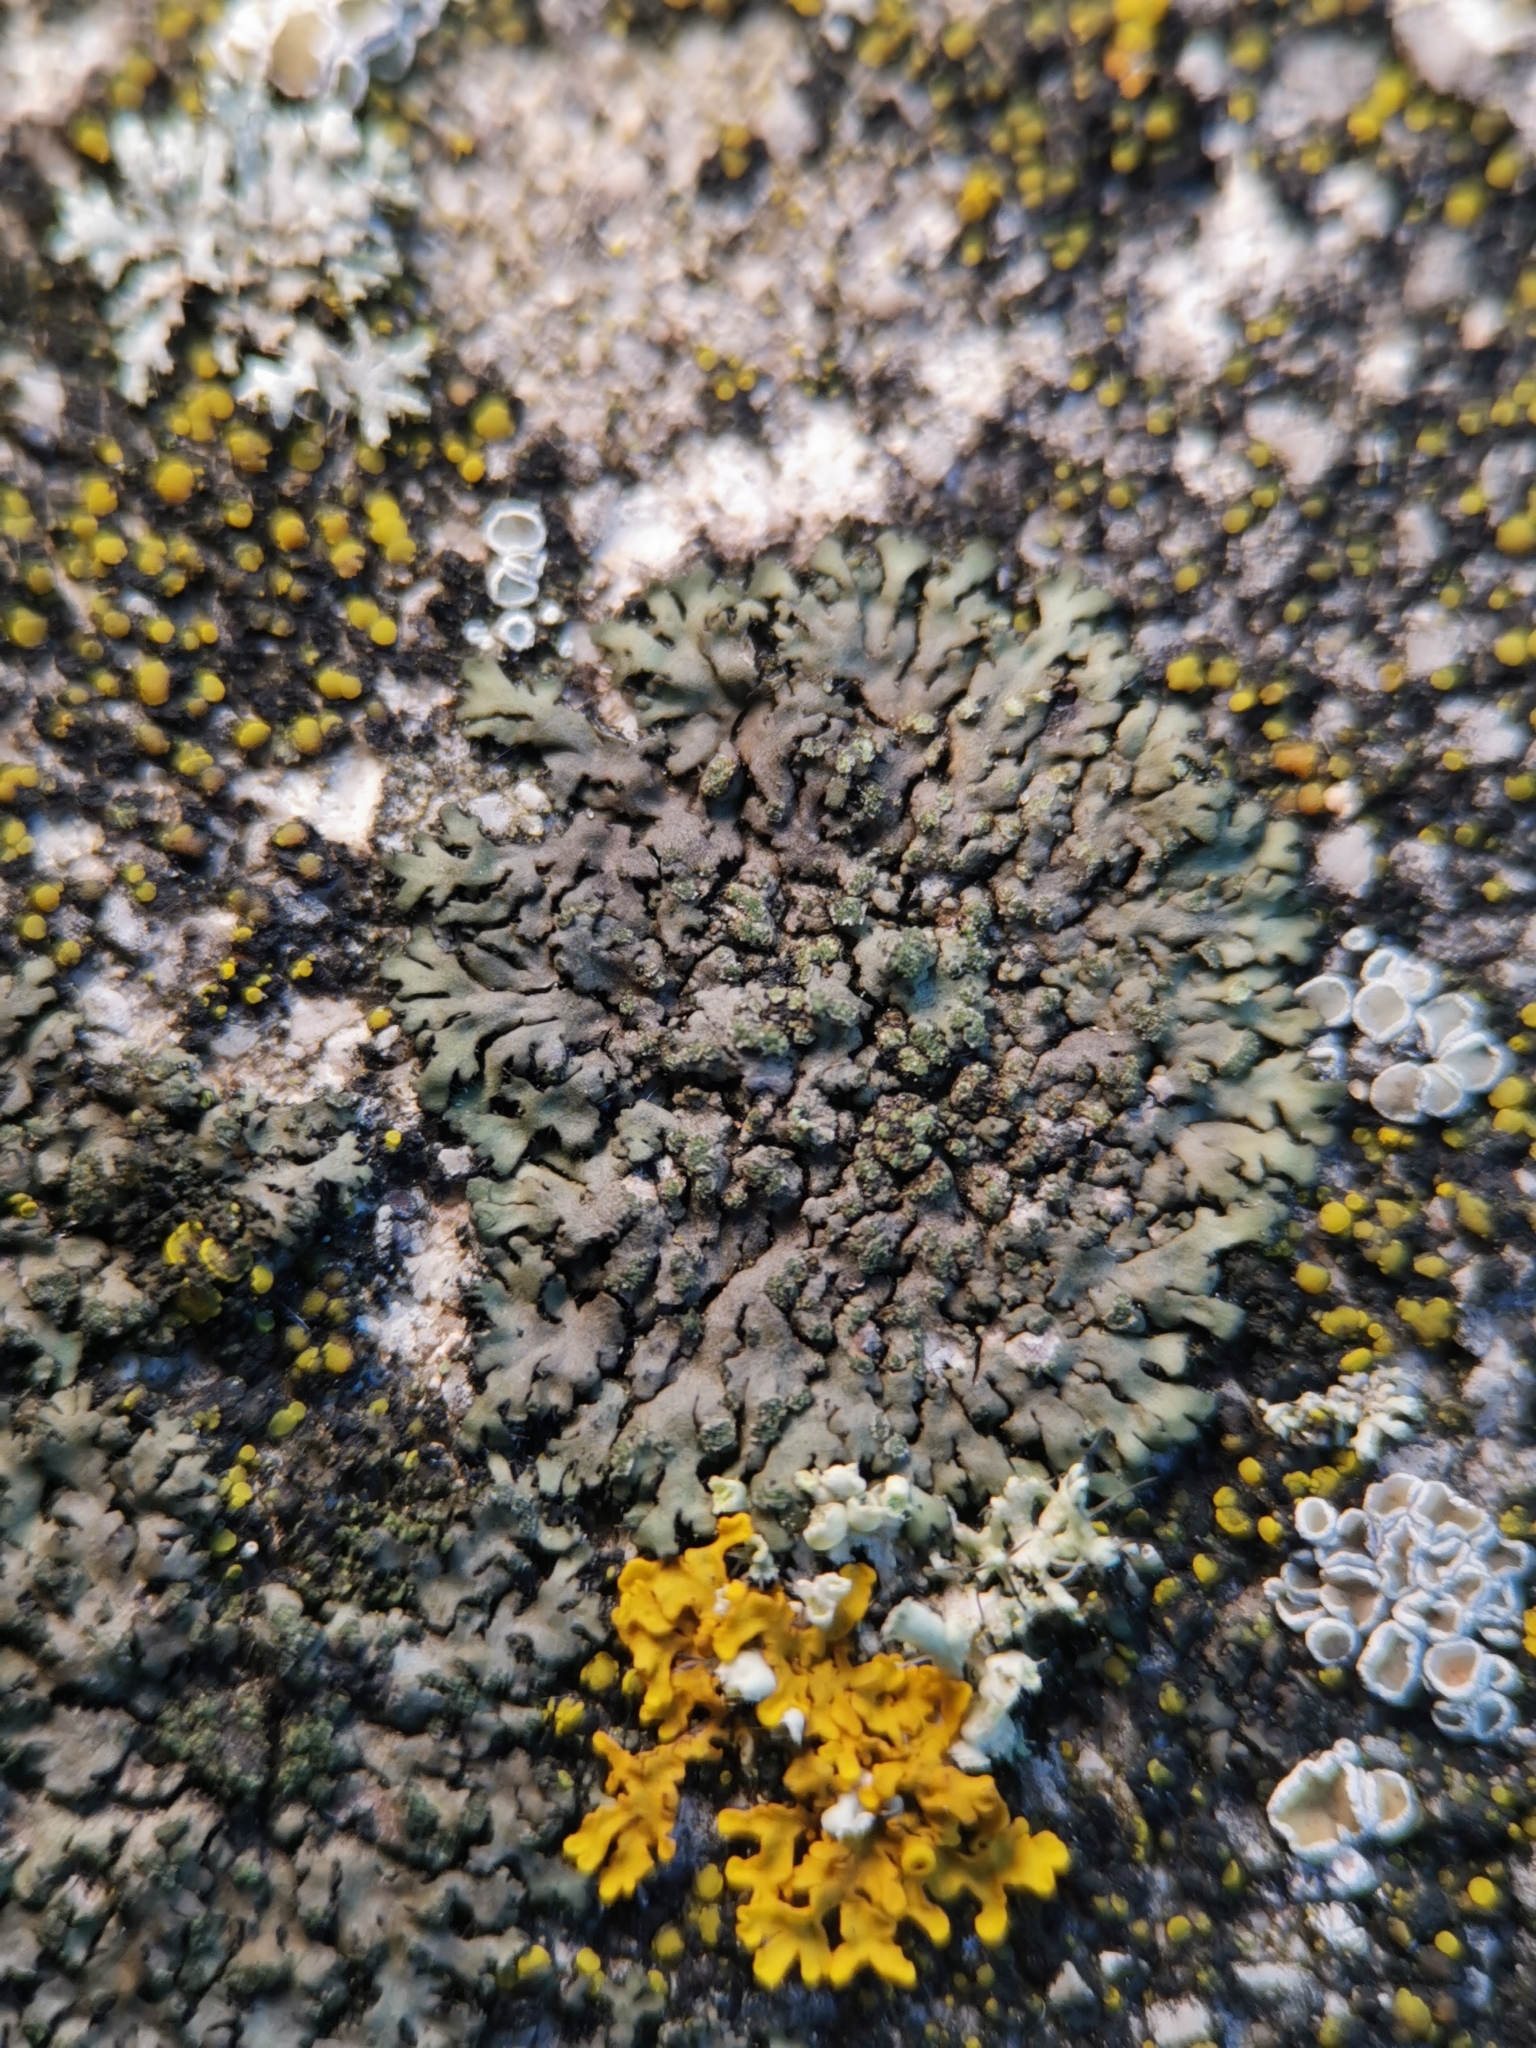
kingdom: Fungi
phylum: Ascomycota
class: Lecanoromycetes
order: Caliciales
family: Physciaceae
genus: Phaeophyscia
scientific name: Phaeophyscia orbicularis
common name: Mealy shadow lichen
